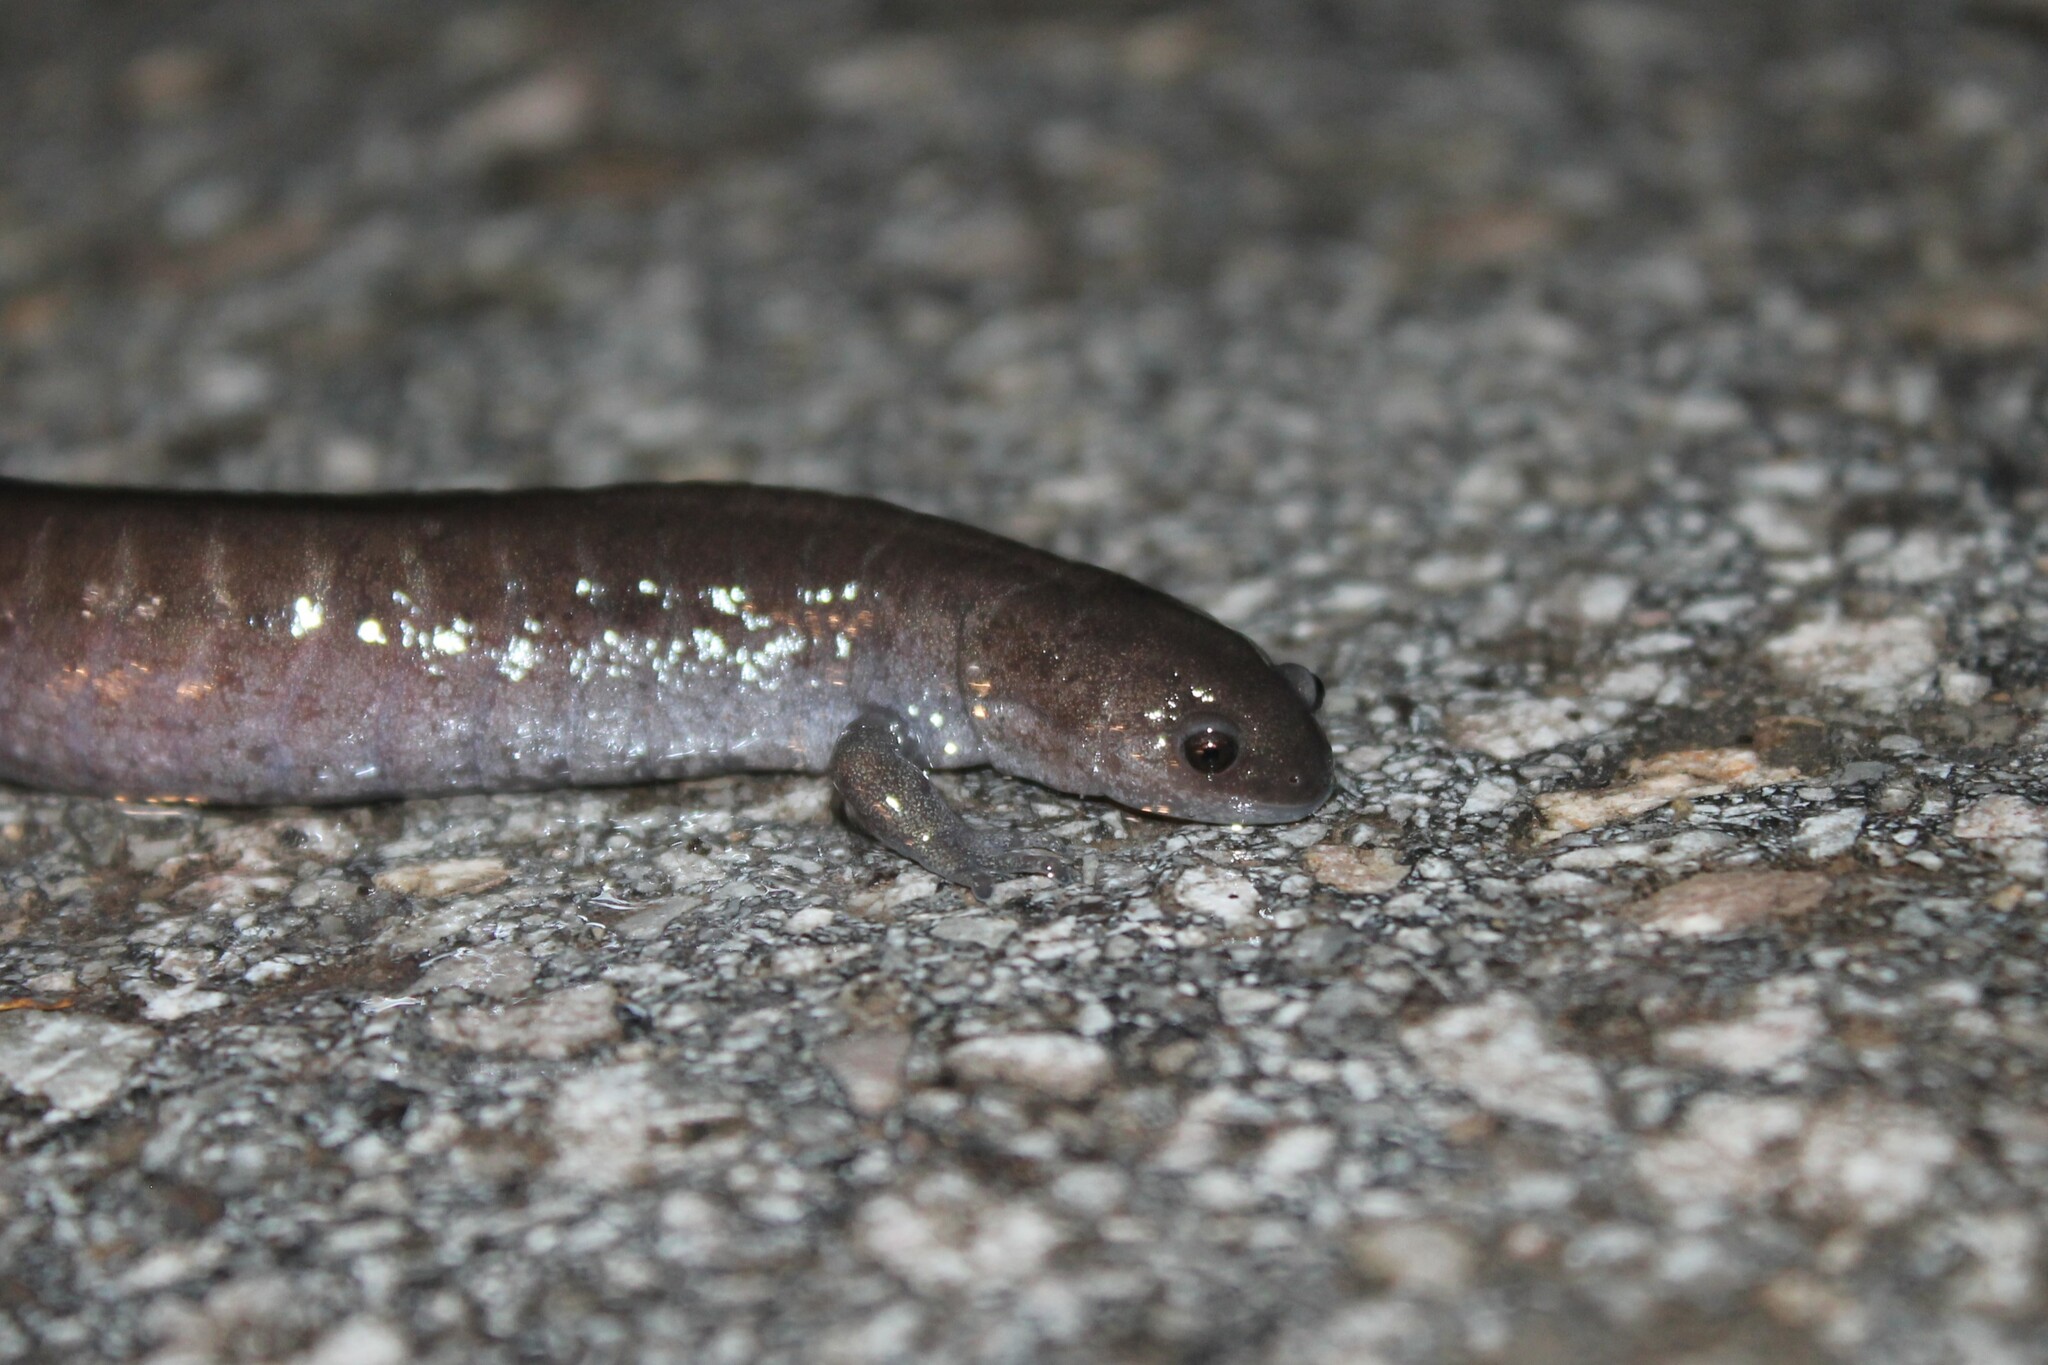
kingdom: Animalia
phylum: Chordata
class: Amphibia
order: Caudata
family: Ambystomatidae
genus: Ambystoma
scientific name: Ambystoma texanum
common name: Small-mouth salamander
